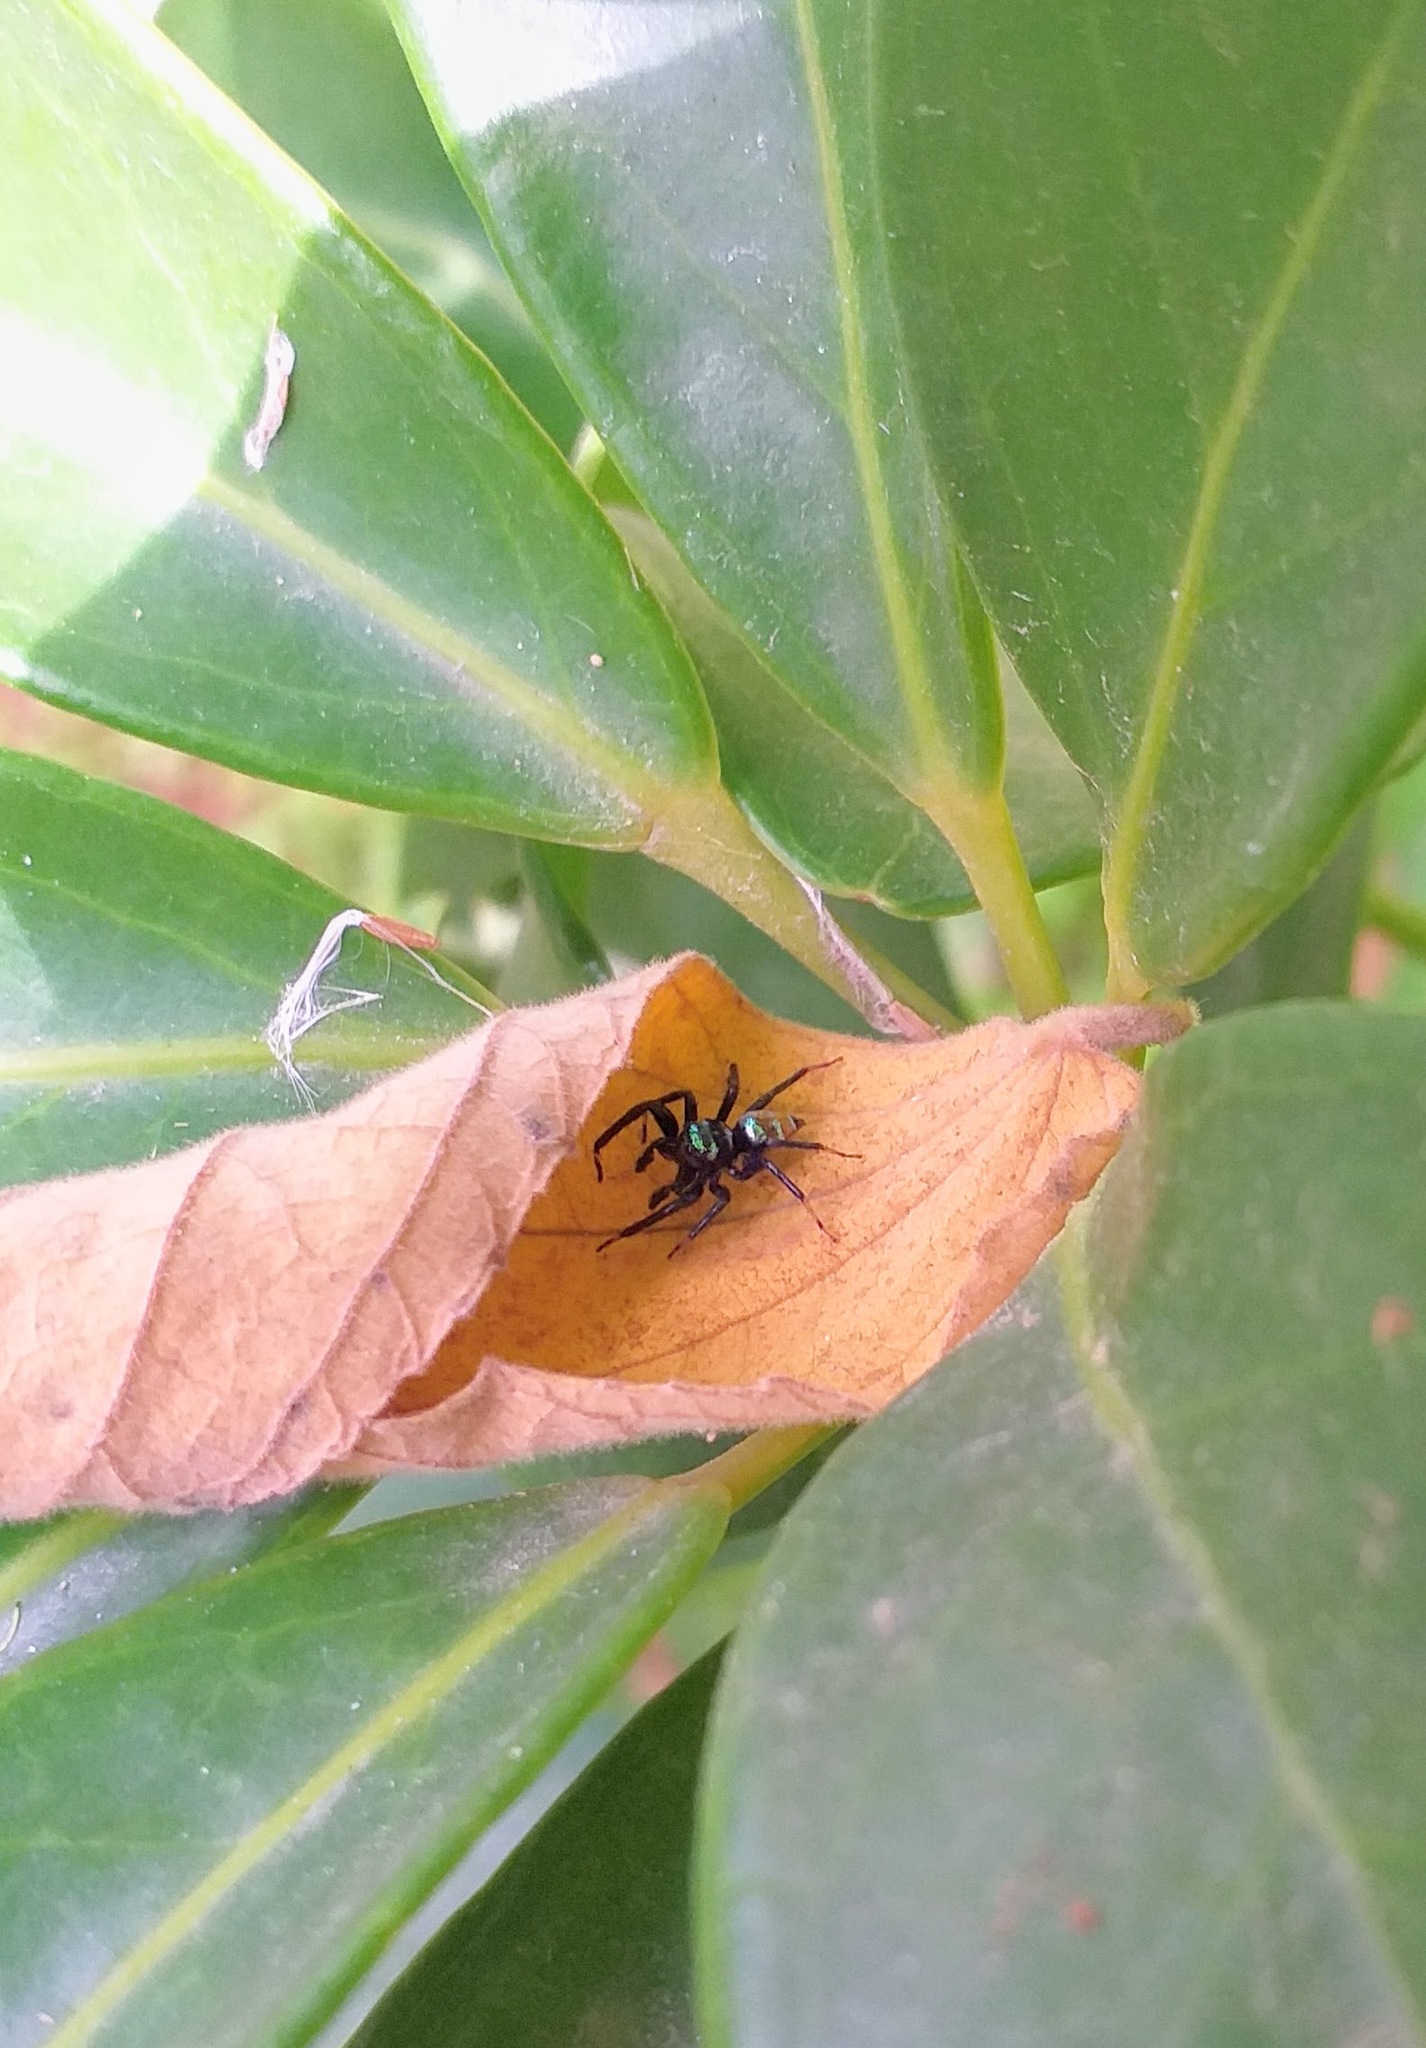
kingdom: Animalia
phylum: Arthropoda
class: Arachnida
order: Araneae
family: Salticidae
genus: Phintella
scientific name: Phintella vittata
